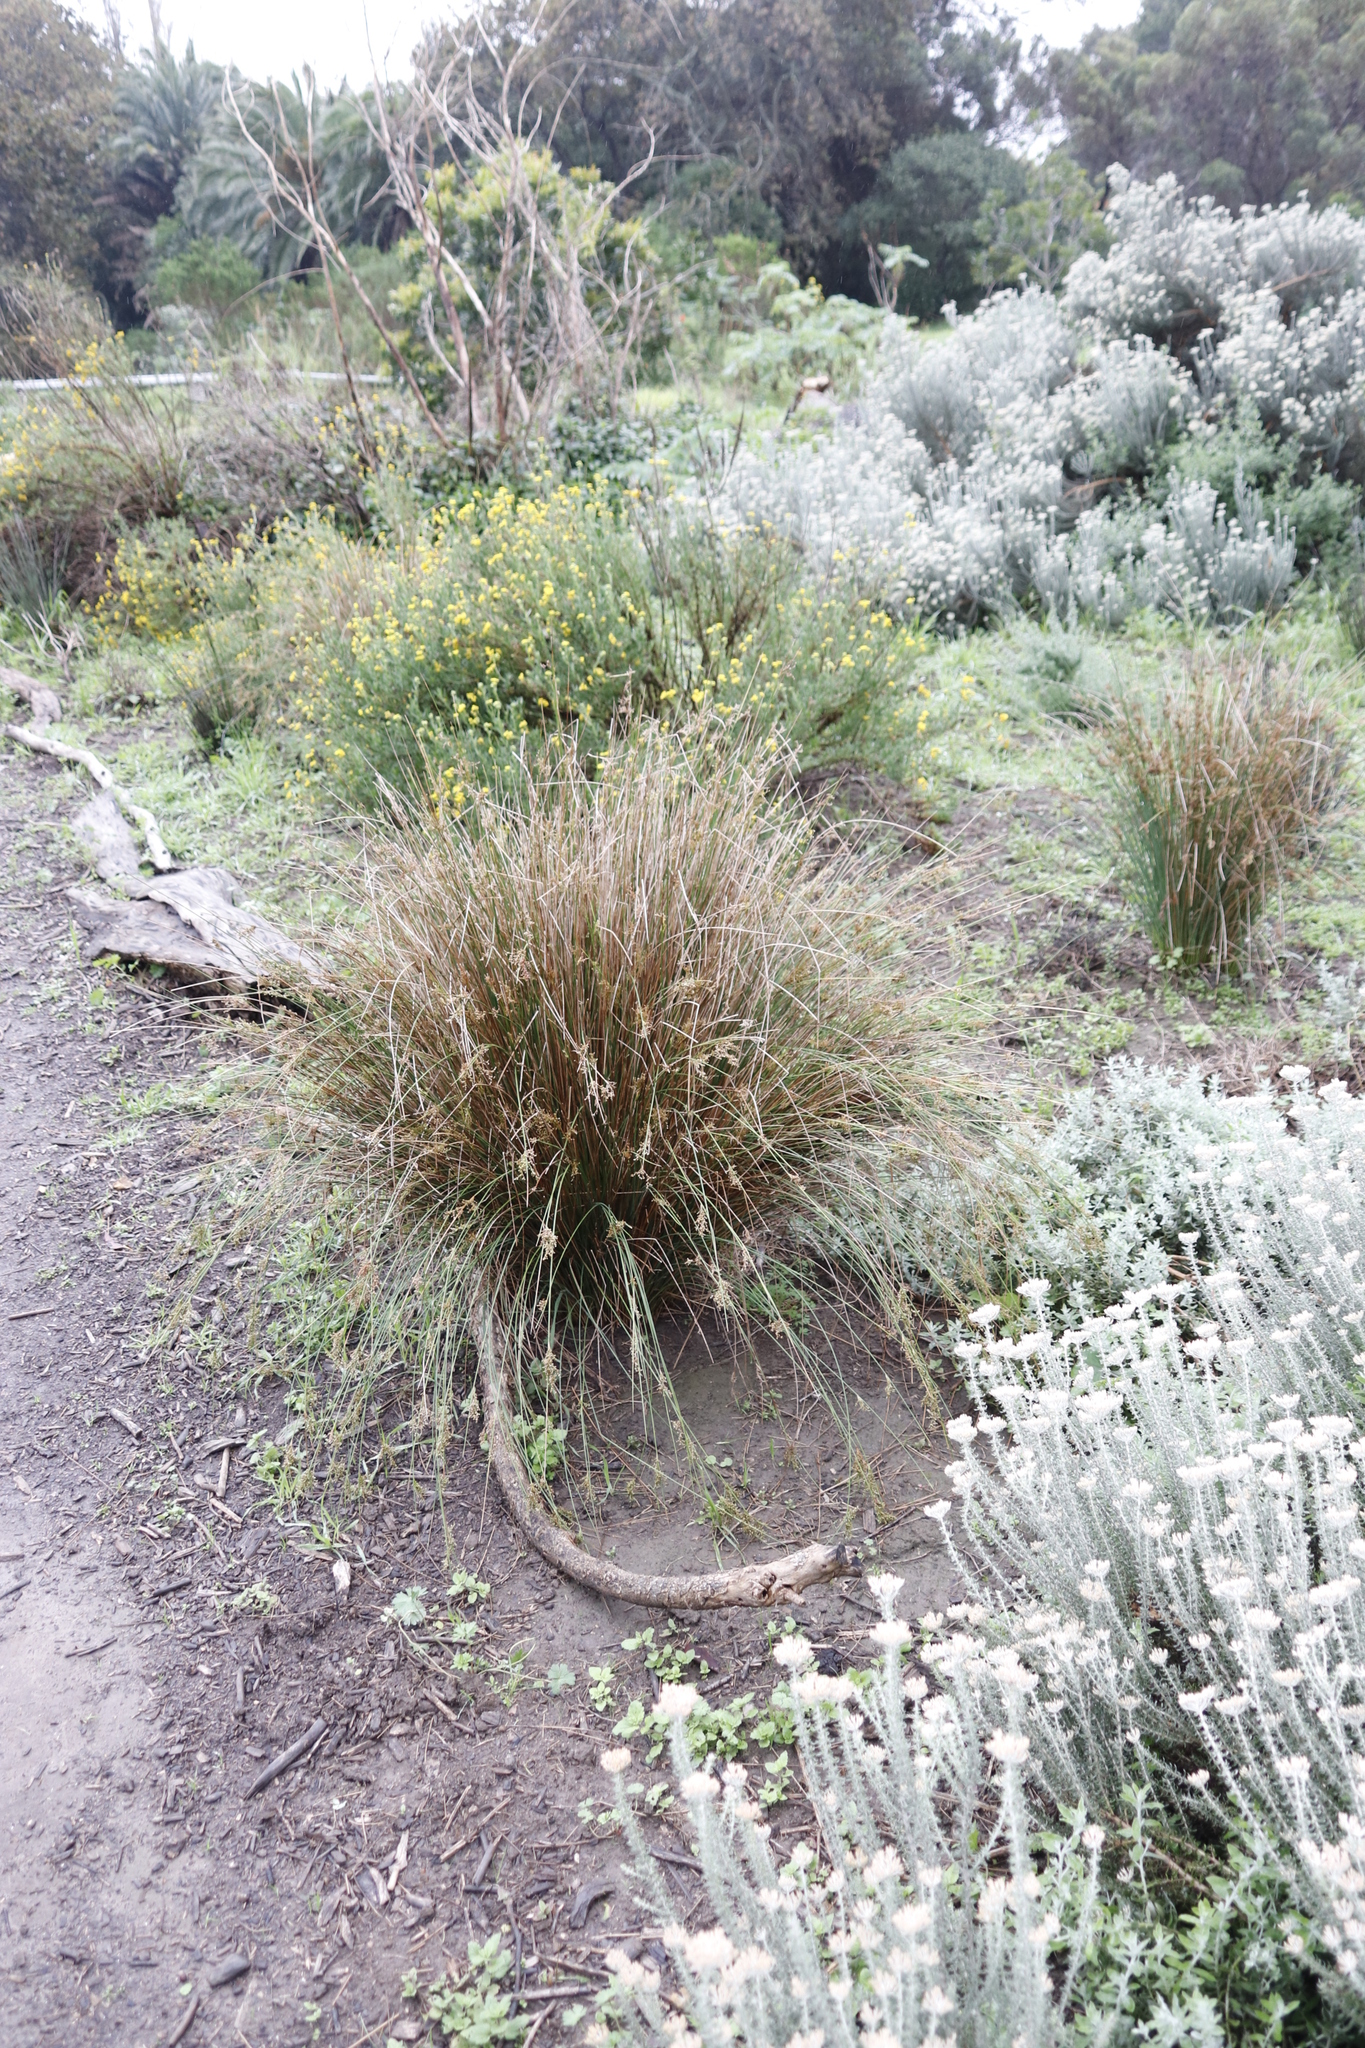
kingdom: Plantae
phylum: Tracheophyta
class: Liliopsida
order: Poales
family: Juncaceae
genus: Juncus
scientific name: Juncus effusus
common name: Soft rush
